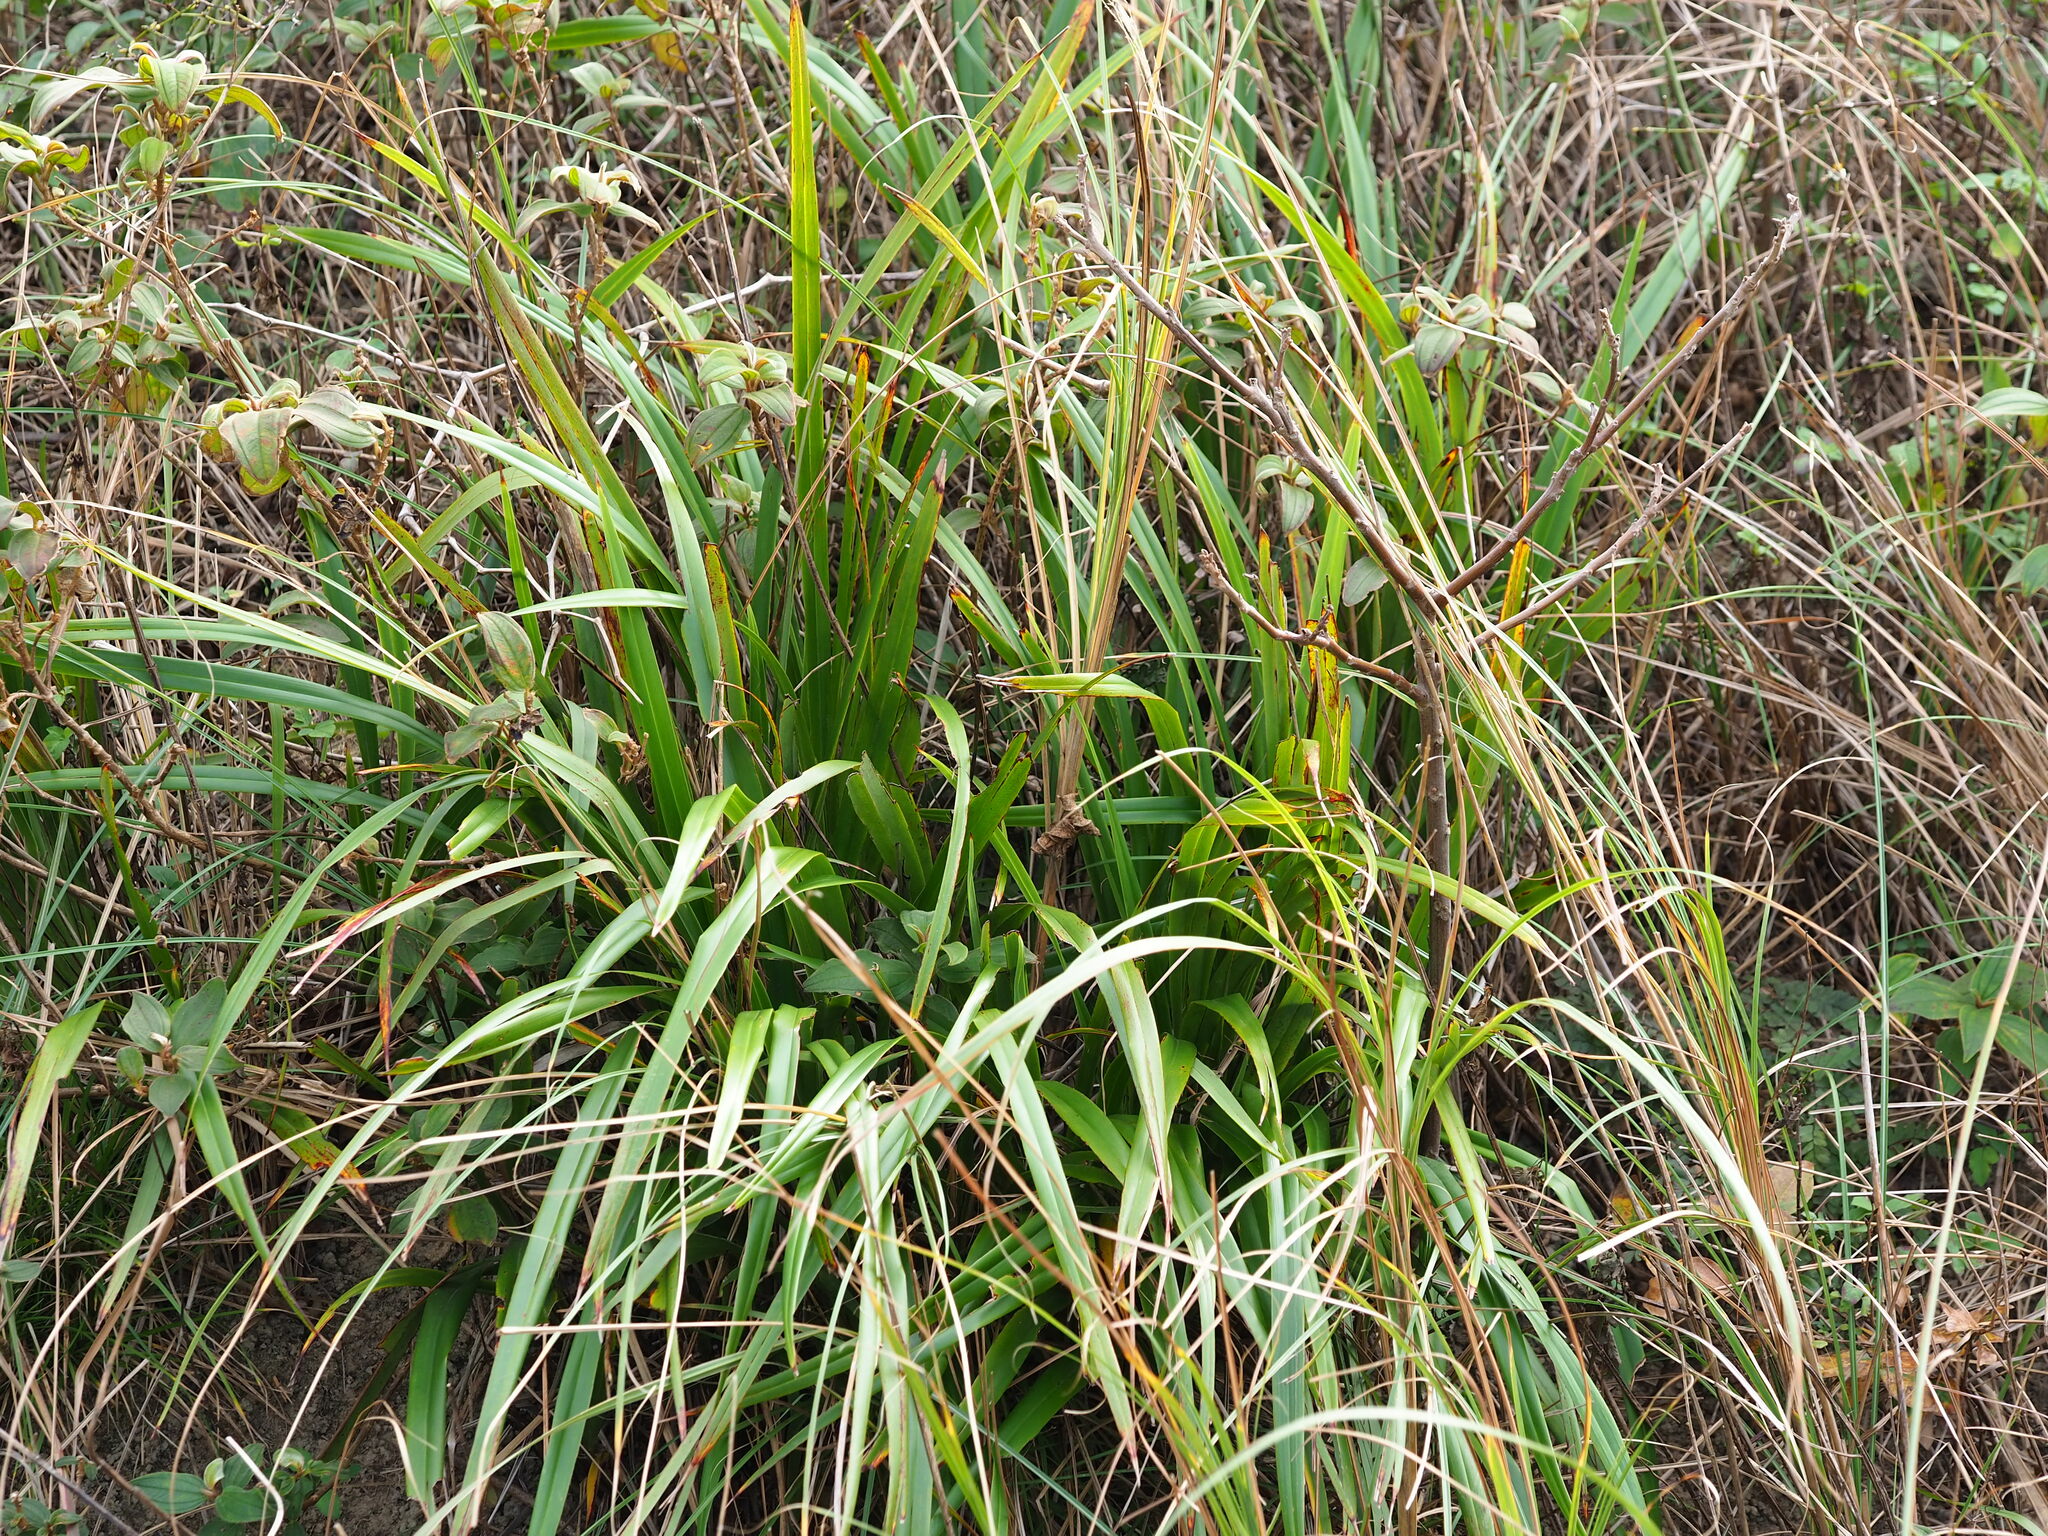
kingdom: Plantae
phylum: Tracheophyta
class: Liliopsida
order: Asparagales
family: Asphodelaceae
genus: Dianella
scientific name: Dianella ensifolia
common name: New zealand lilyplant
